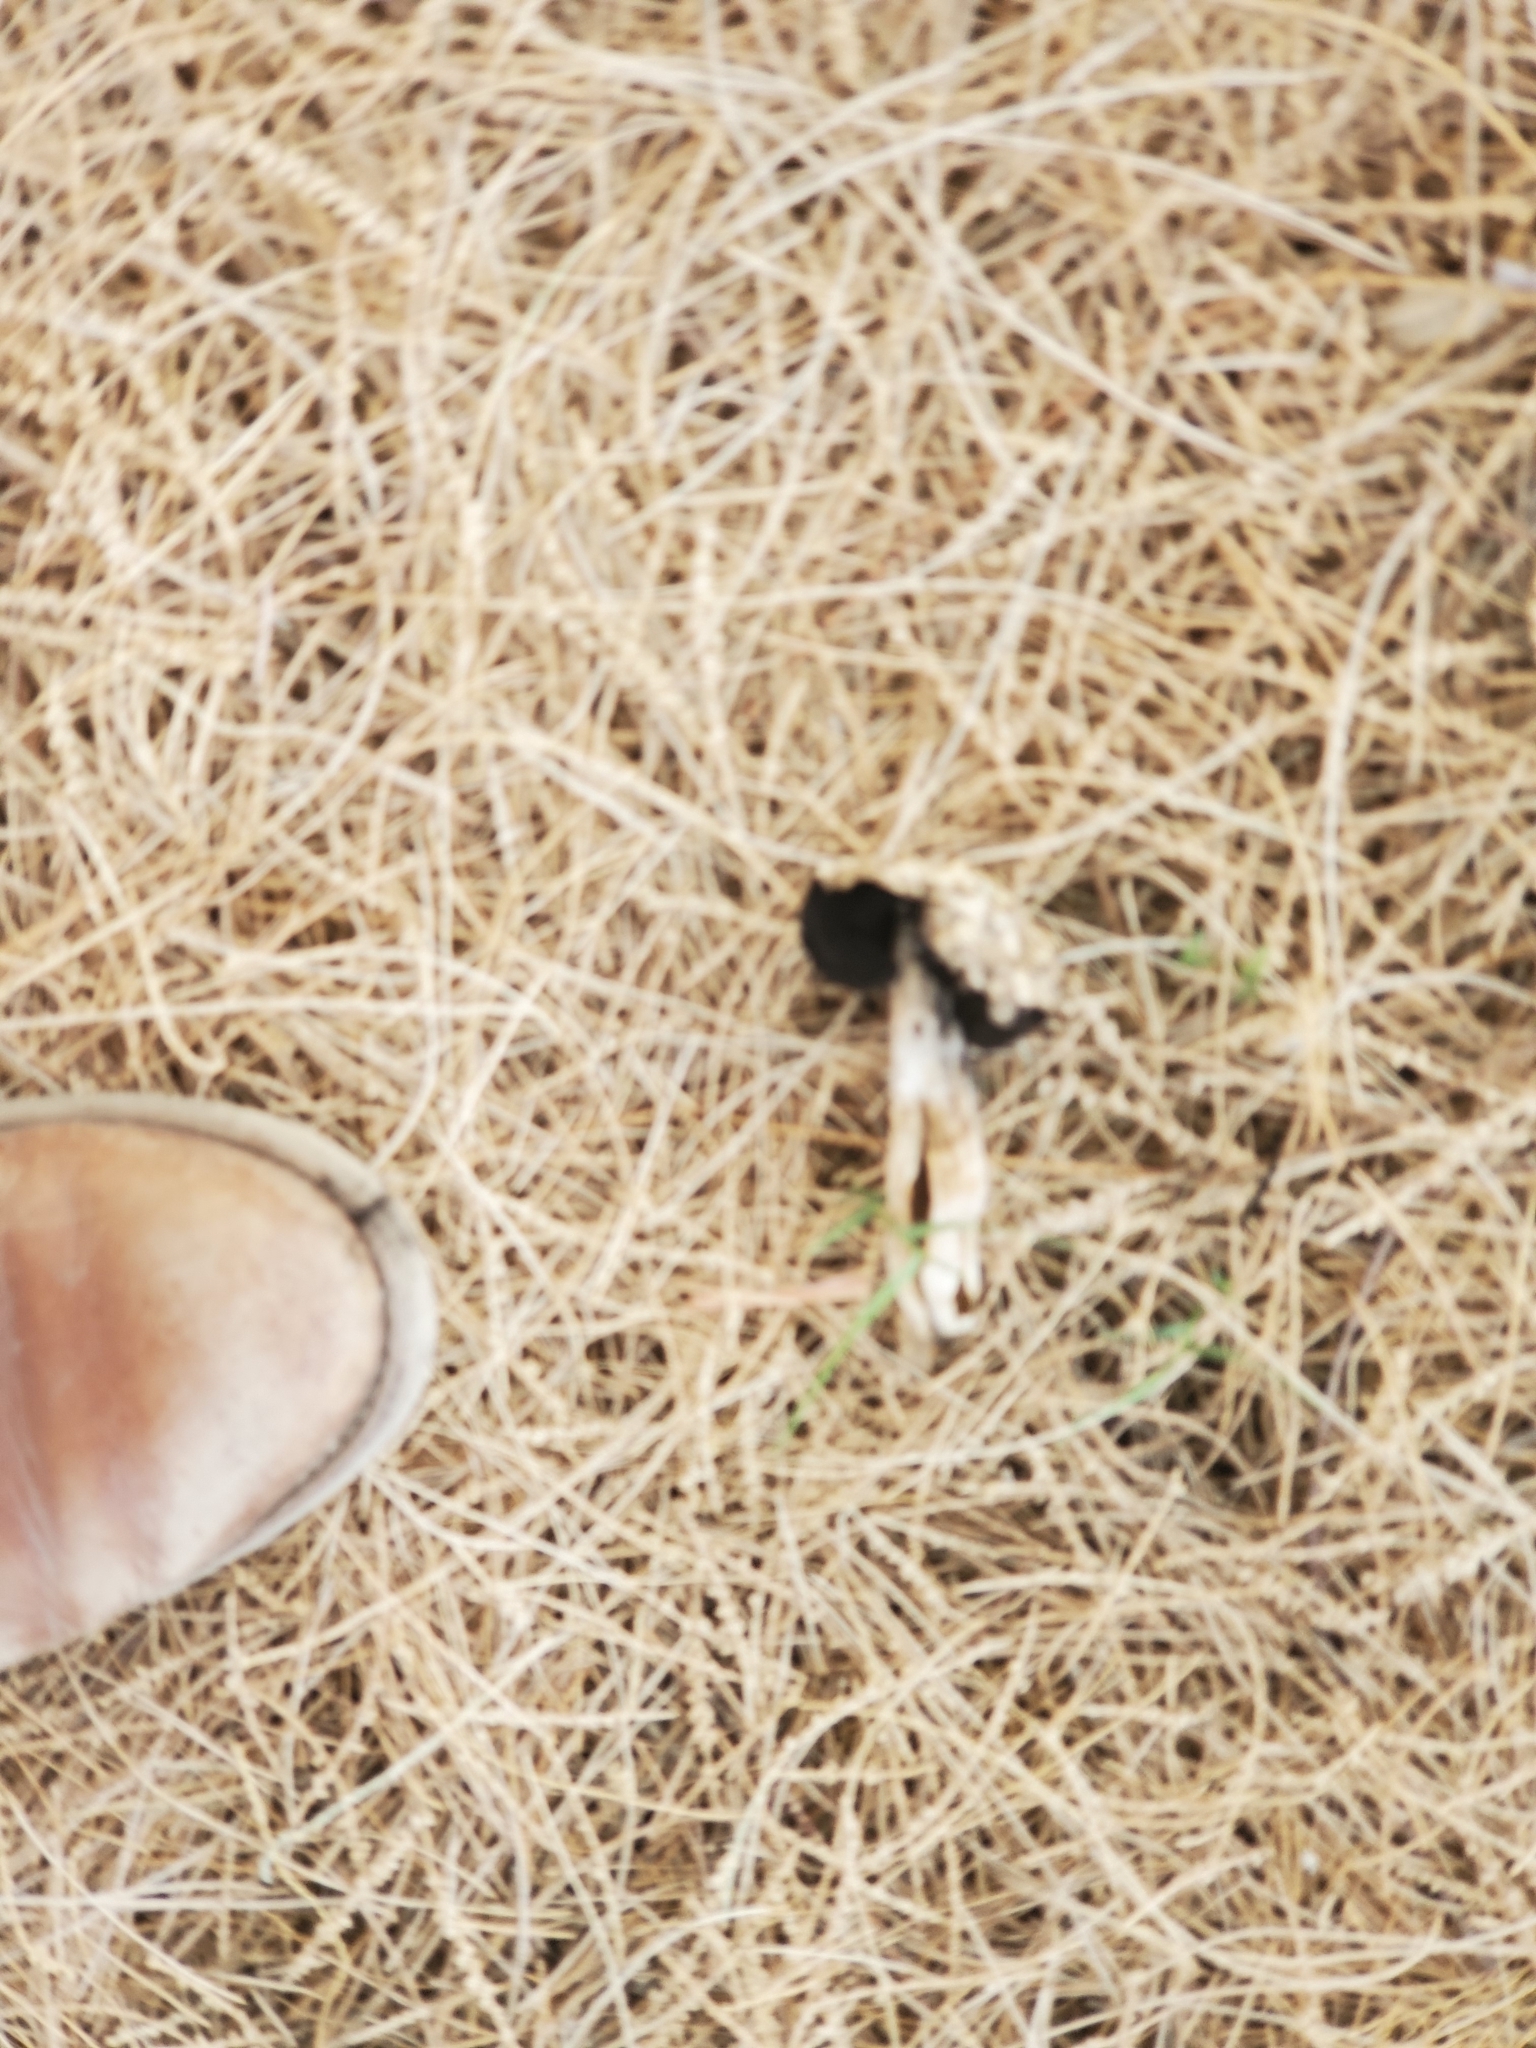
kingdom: Fungi
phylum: Basidiomycota
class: Agaricomycetes
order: Agaricales
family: Agaricaceae
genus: Montagnea
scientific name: Montagnea arenaria
